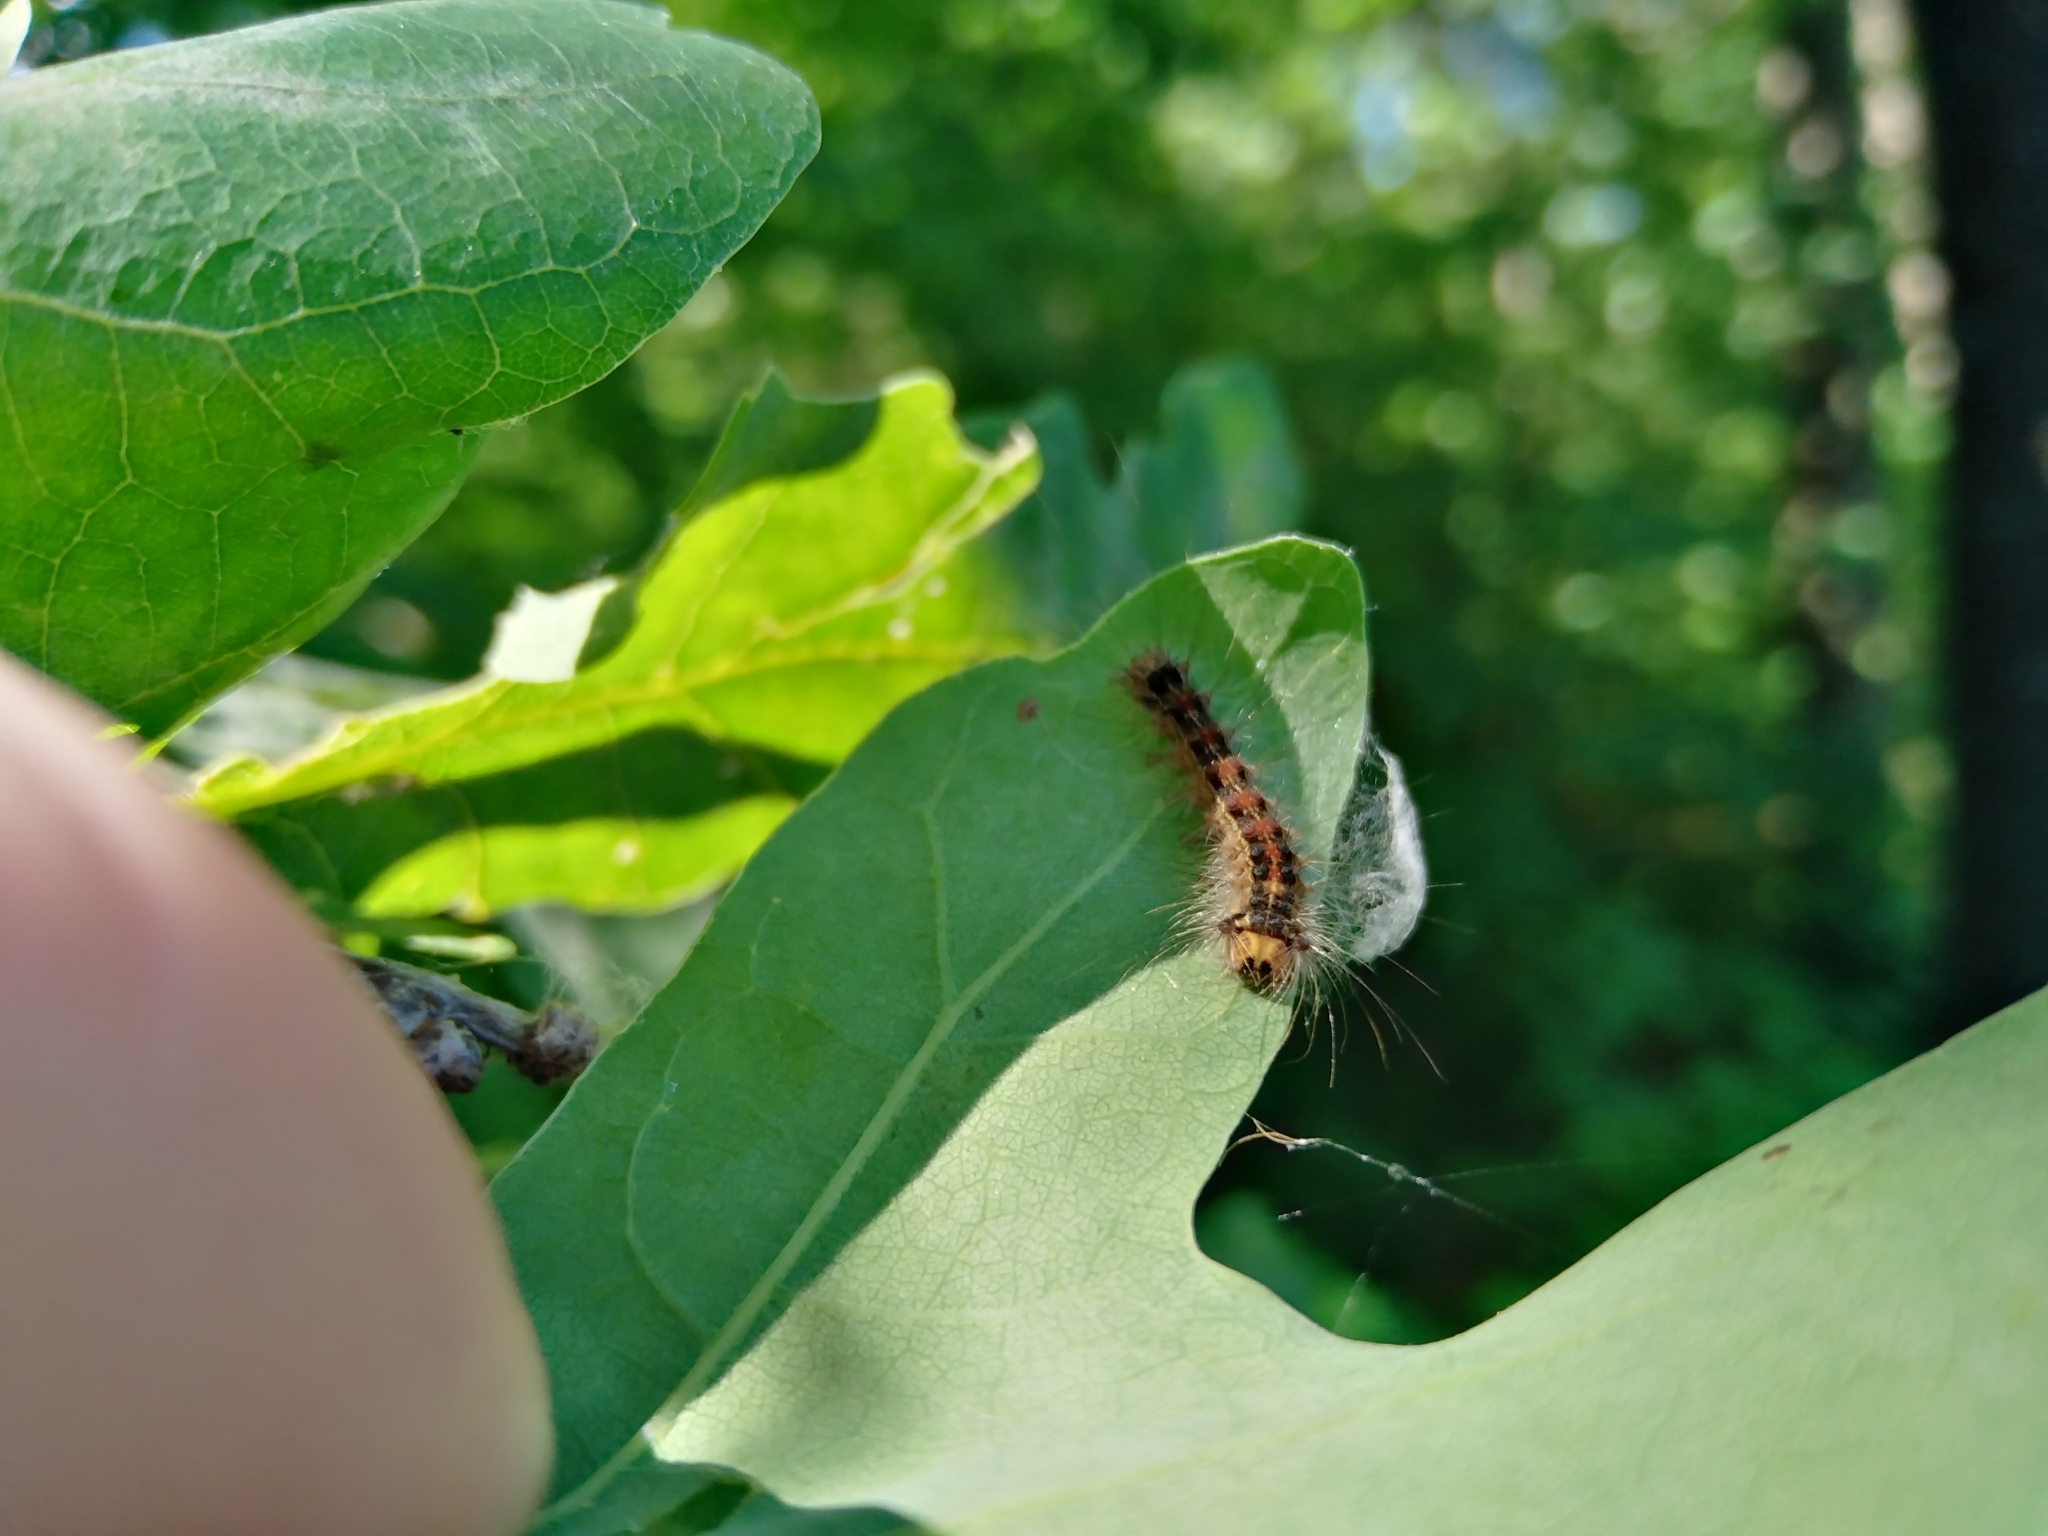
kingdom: Animalia
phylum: Arthropoda
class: Insecta
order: Lepidoptera
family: Erebidae
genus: Lymantria
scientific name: Lymantria dispar
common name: Gypsy moth
